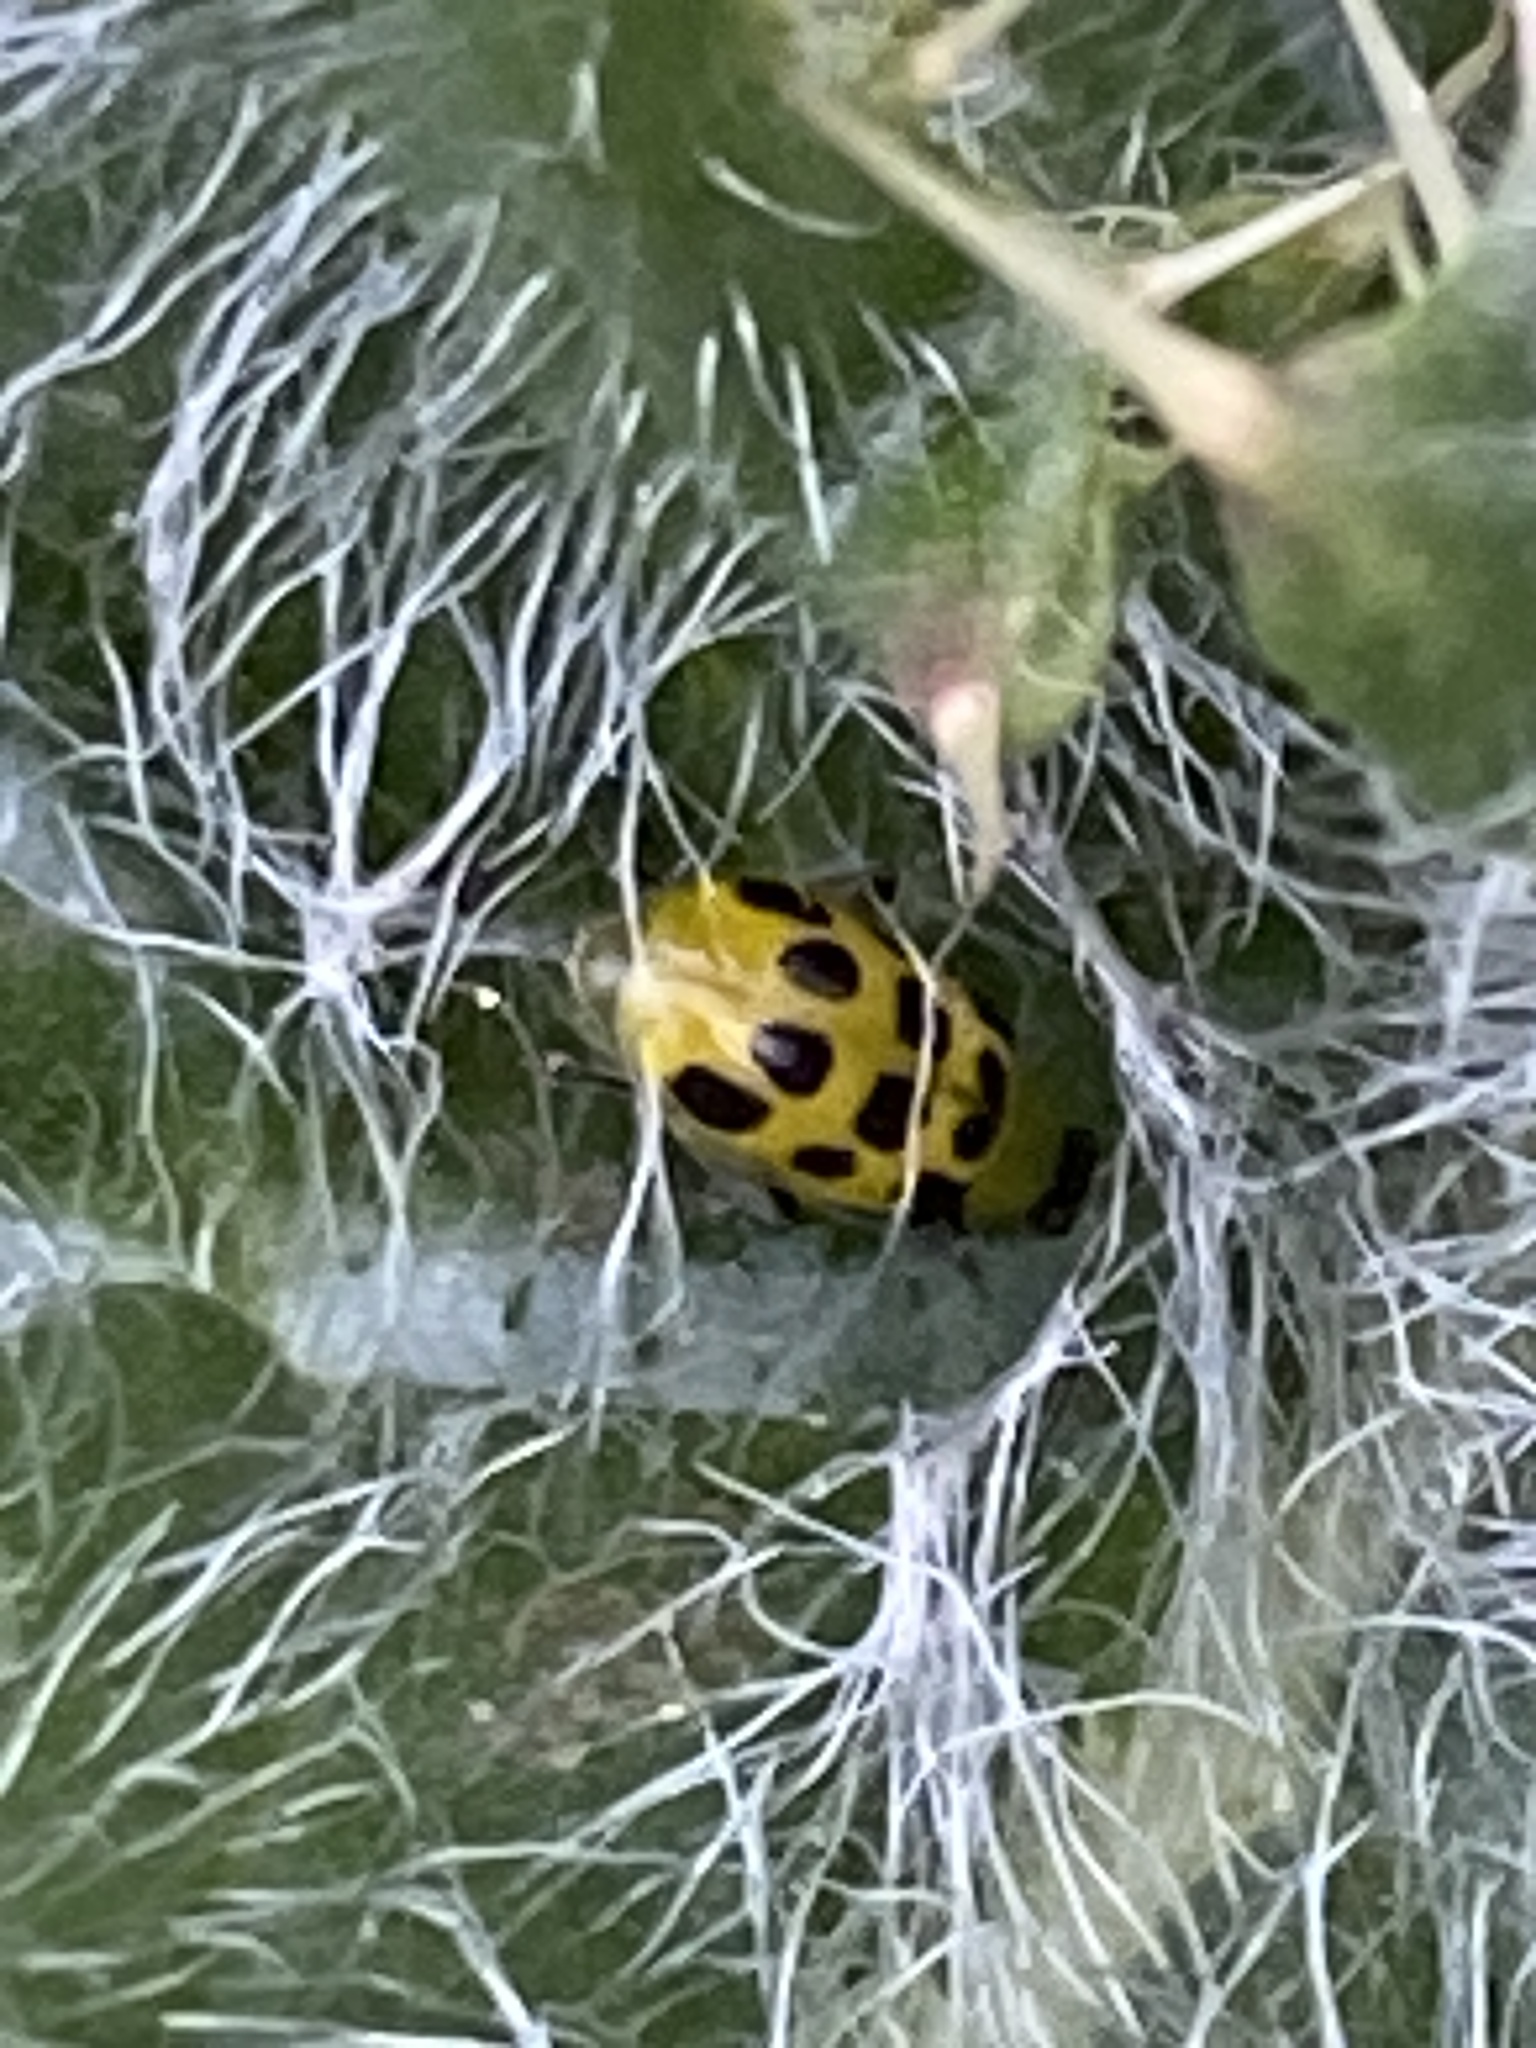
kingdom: Animalia
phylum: Arthropoda
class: Insecta
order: Coleoptera
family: Chrysomelidae
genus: Diabrotica
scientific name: Diabrotica undecimpunctata
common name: Spotted cucumber beetle
